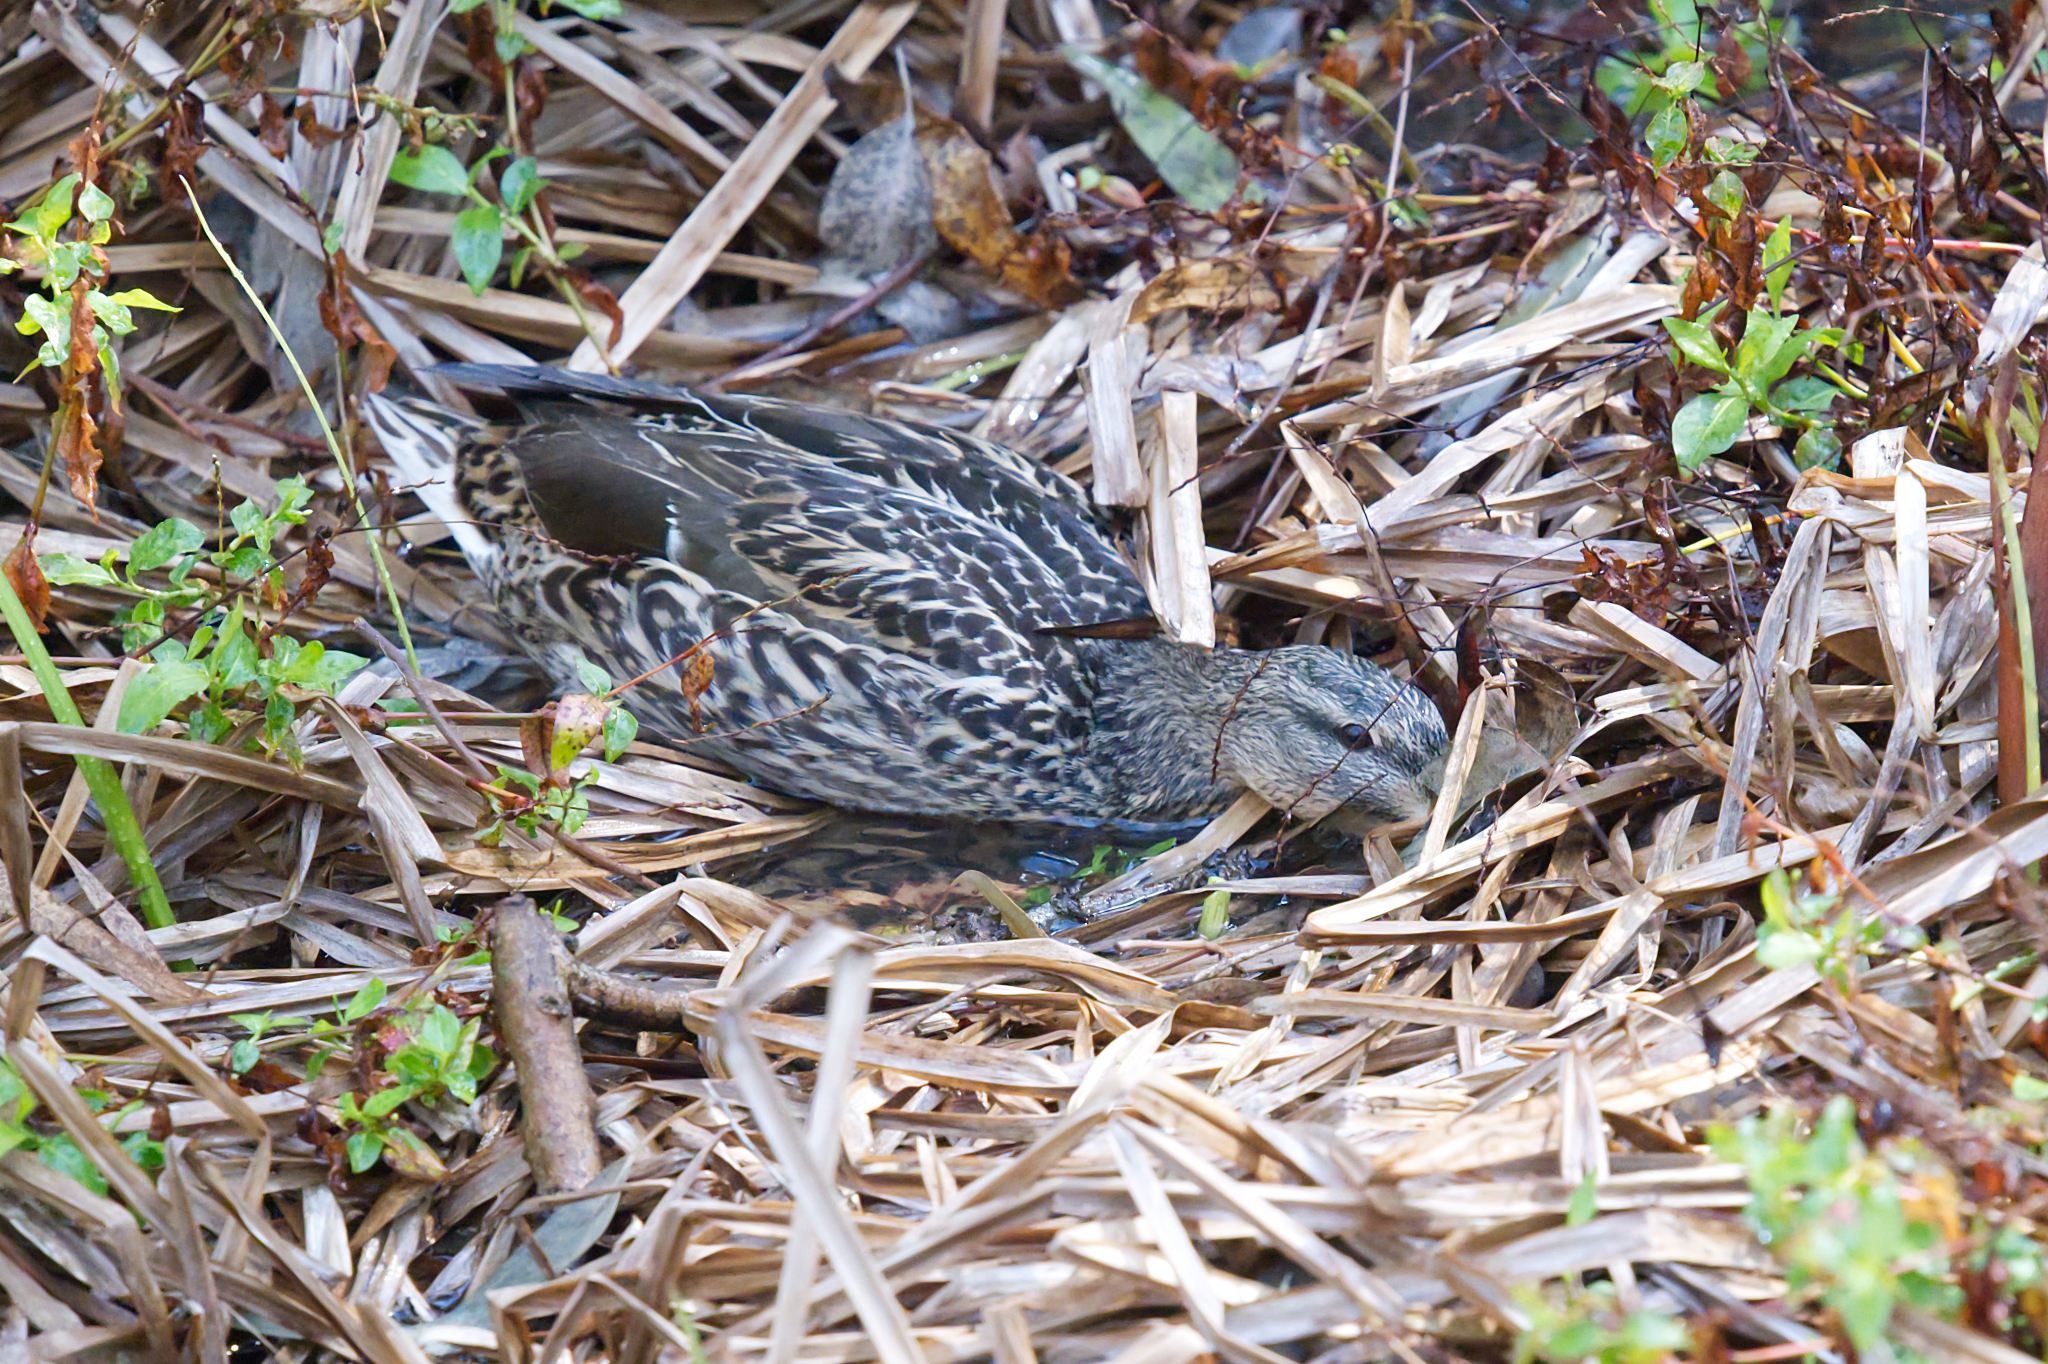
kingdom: Animalia
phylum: Chordata
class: Aves
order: Anseriformes
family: Anatidae
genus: Anas
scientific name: Anas platyrhynchos
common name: Mallard
